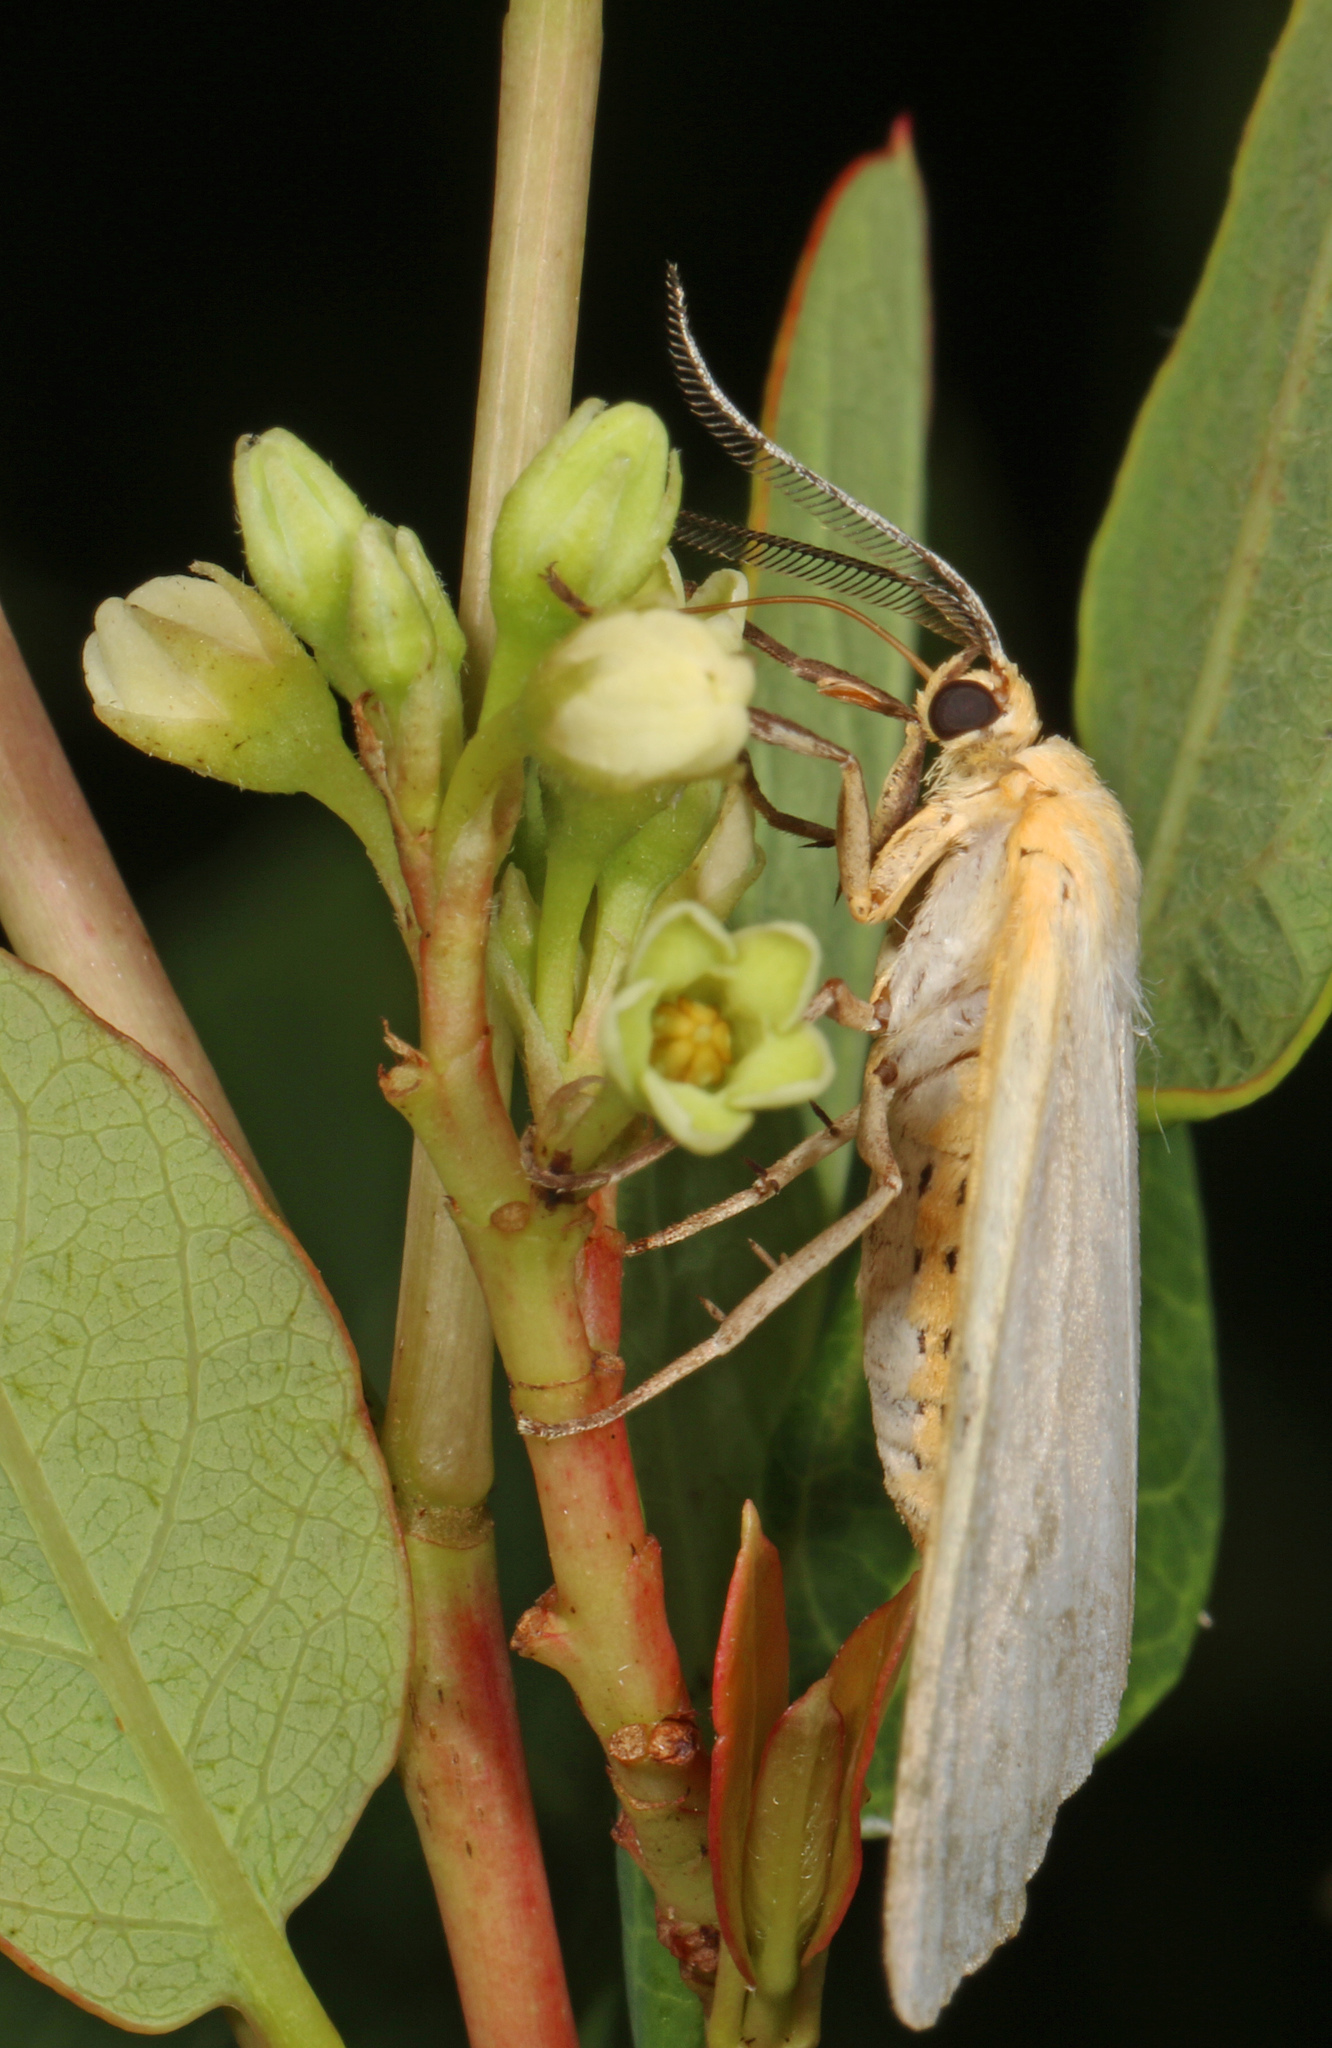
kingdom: Animalia
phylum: Arthropoda
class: Insecta
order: Lepidoptera
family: Erebidae
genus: Cycnia
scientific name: Cycnia tenera
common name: Delicate cycnia moth
